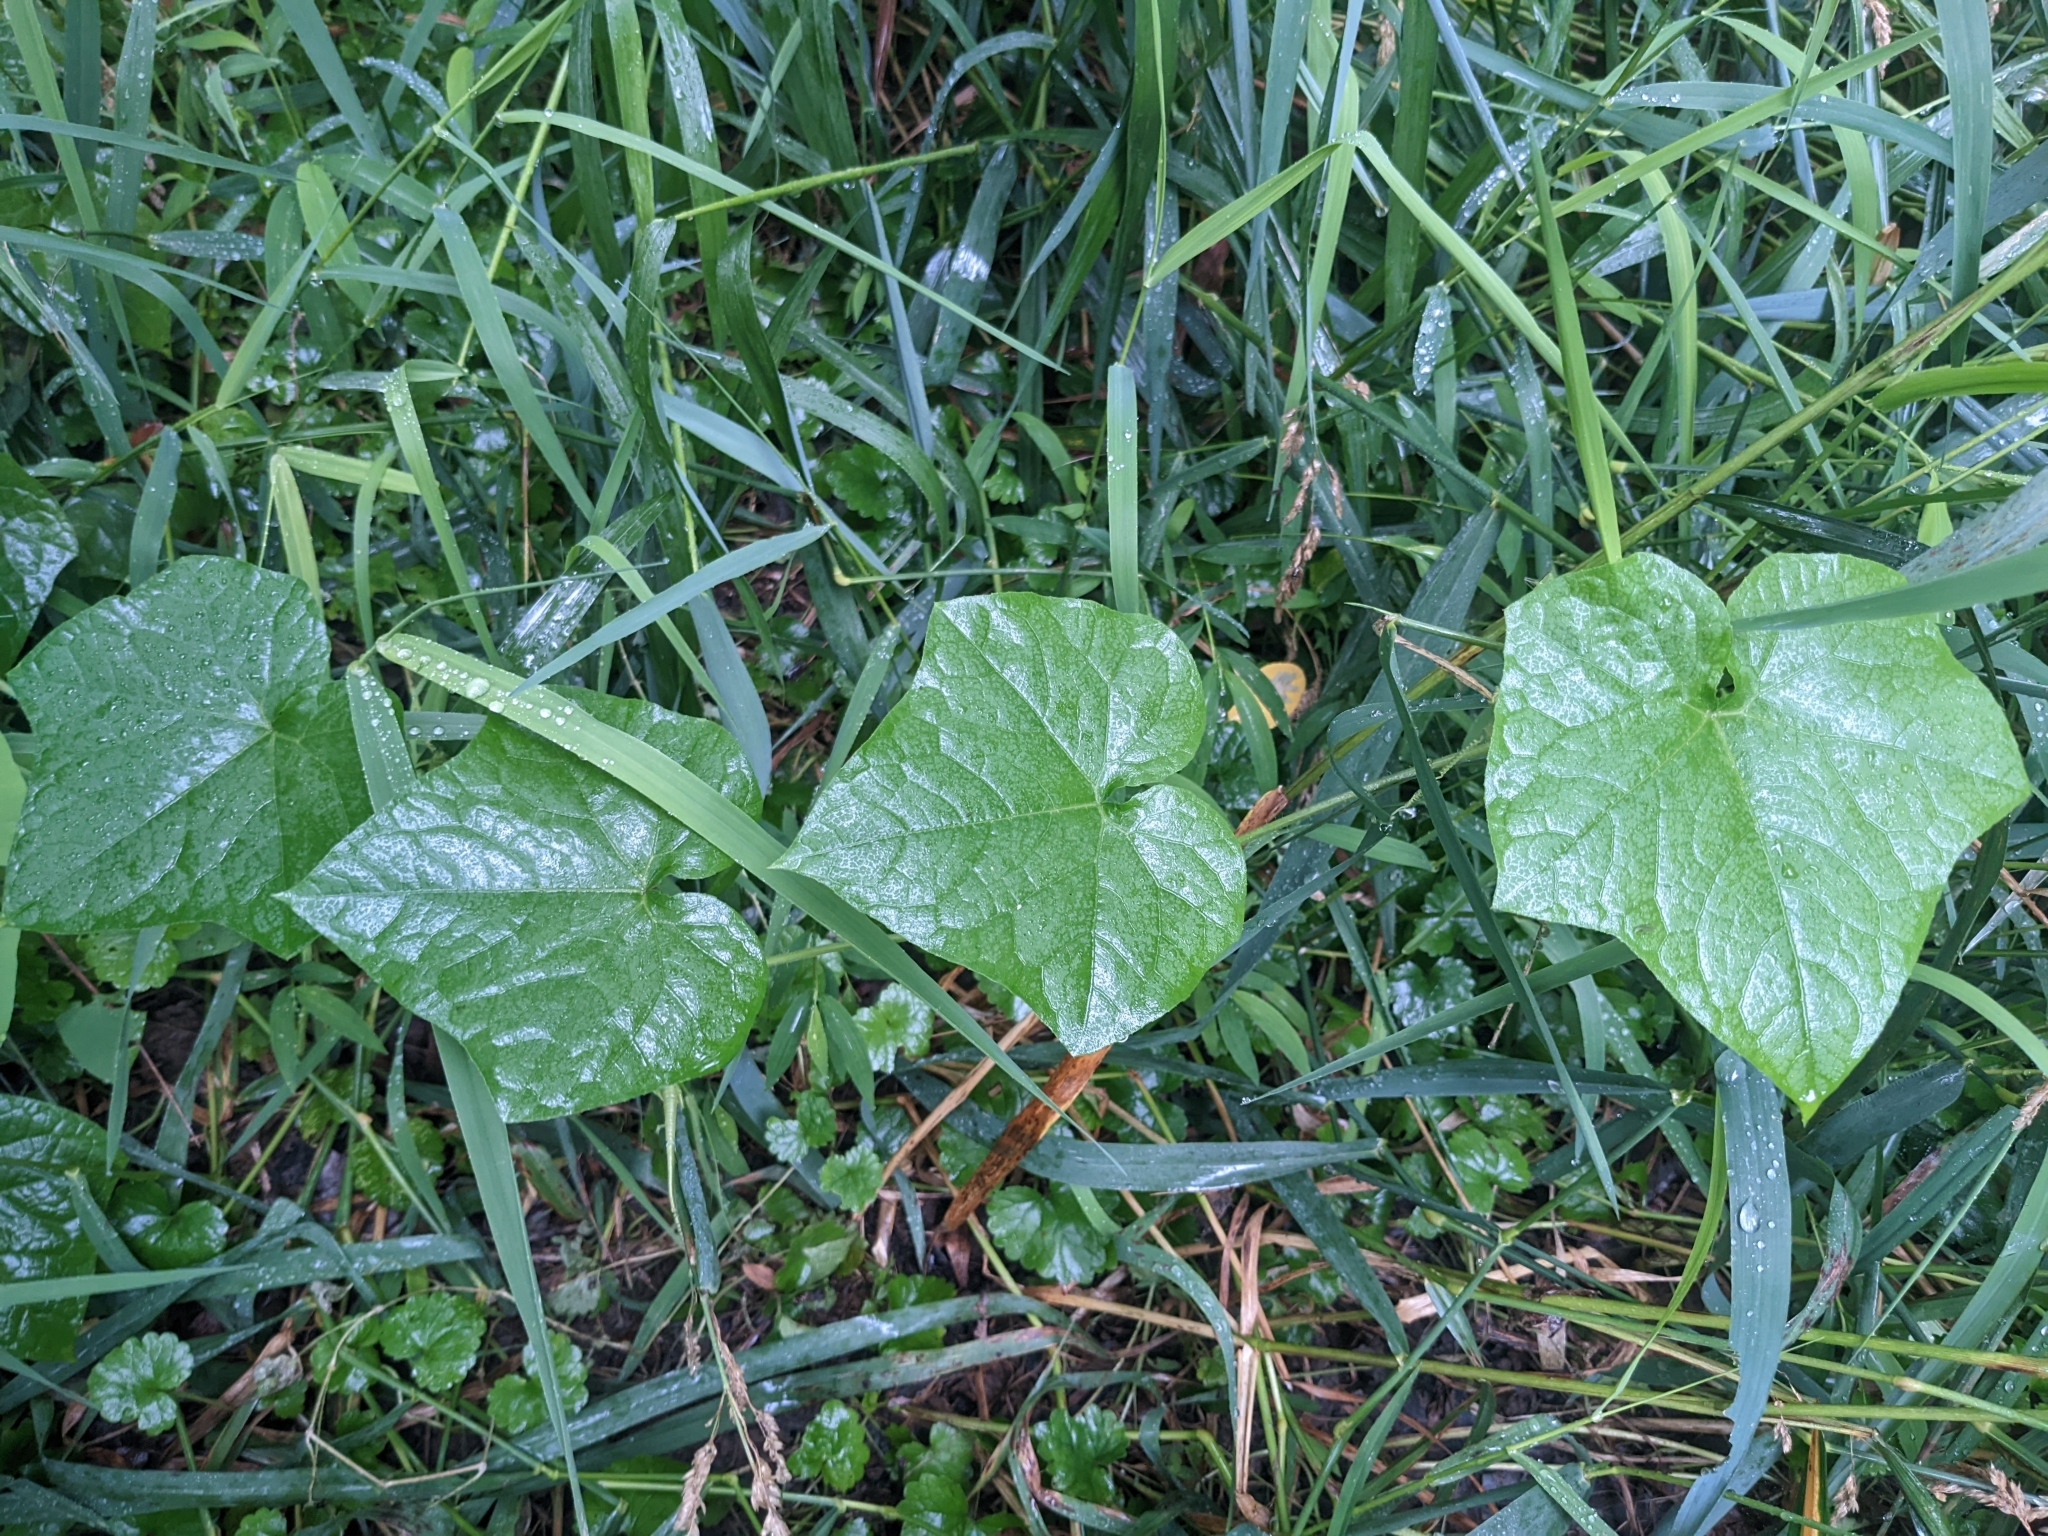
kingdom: Plantae
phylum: Tracheophyta
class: Magnoliopsida
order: Cucurbitales
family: Cucurbitaceae
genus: Sicyos
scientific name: Sicyos angulatus
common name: Angled burr cucumber
